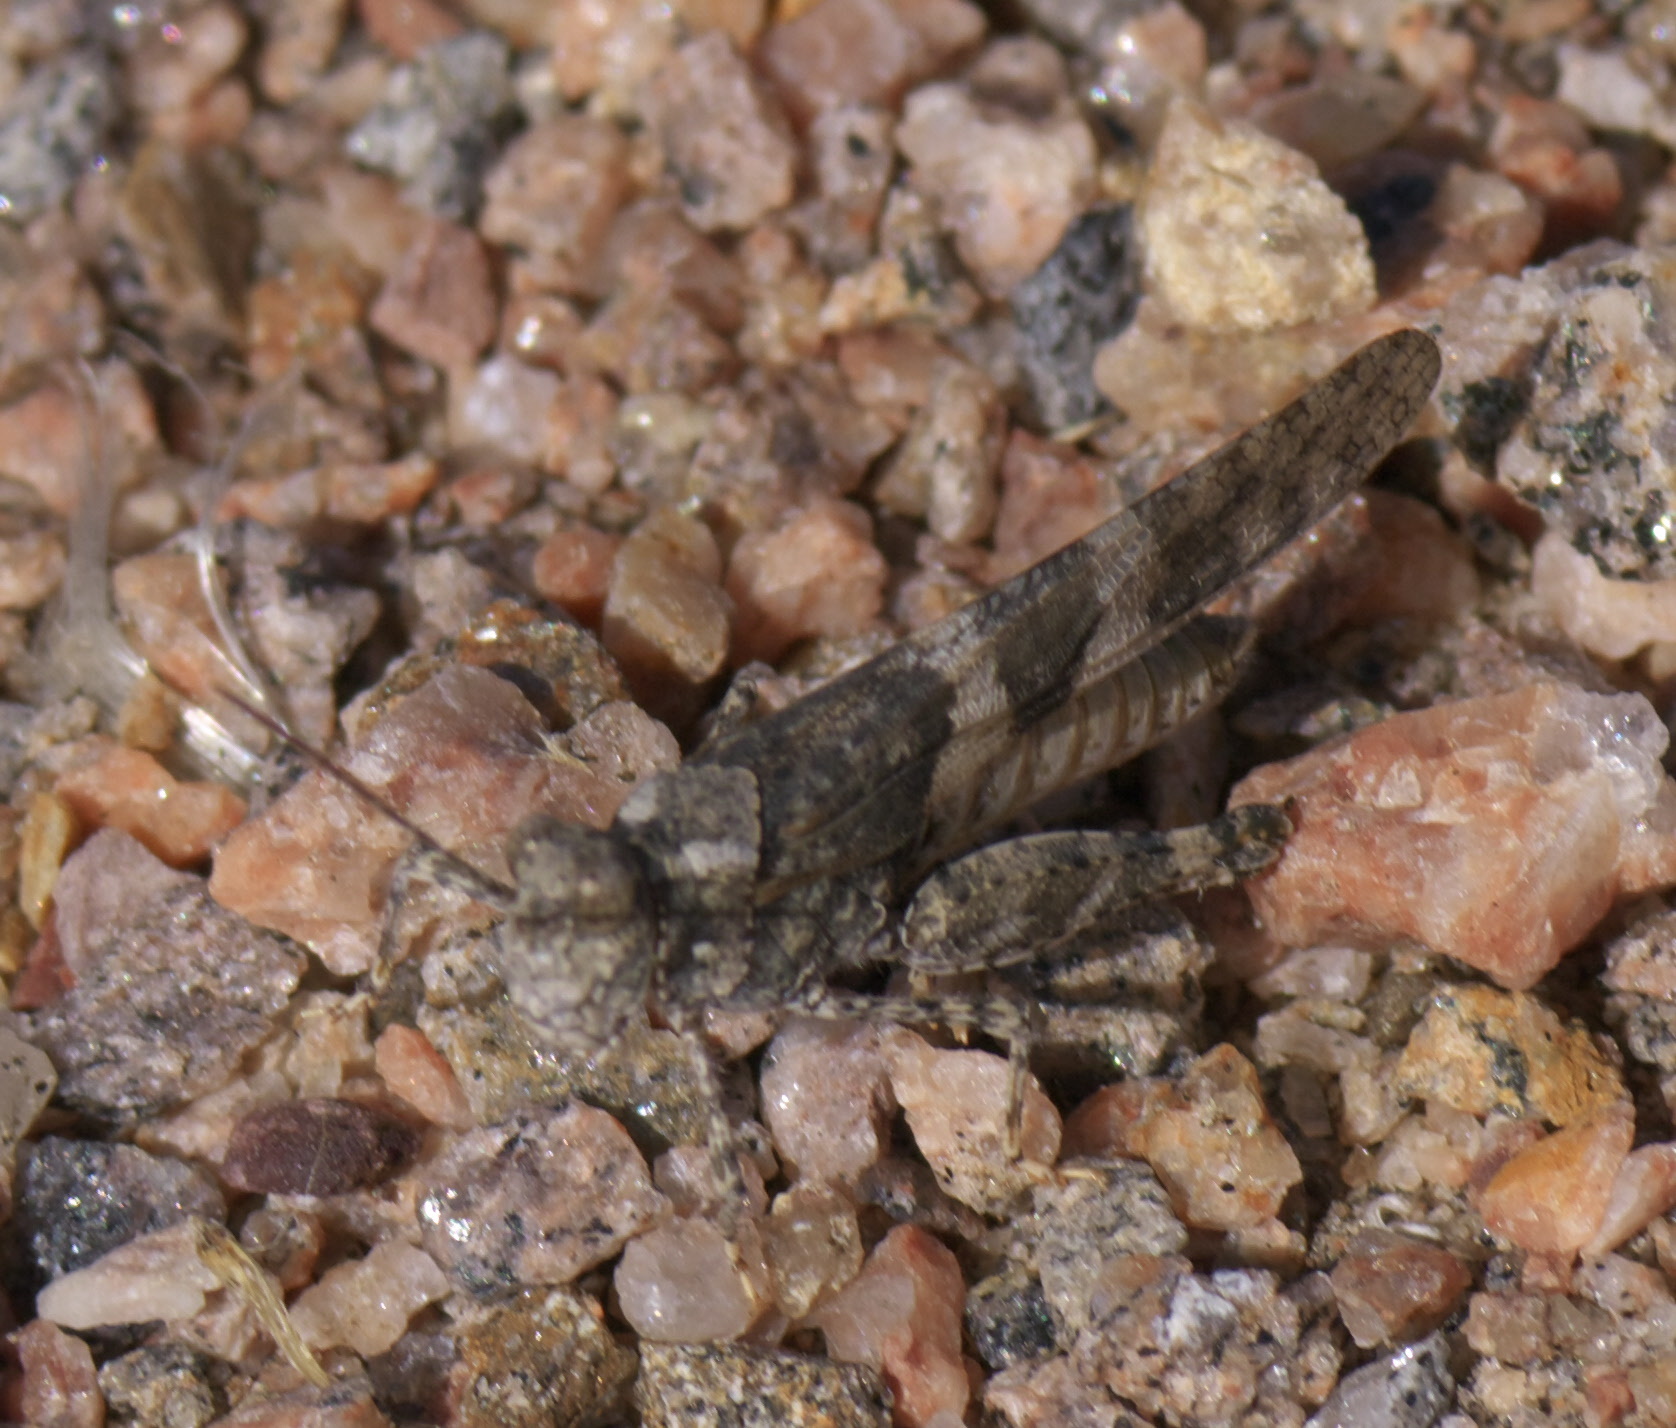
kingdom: Animalia
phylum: Arthropoda
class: Insecta
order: Orthoptera
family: Acrididae
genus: Trimerotropis
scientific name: Trimerotropis salina
